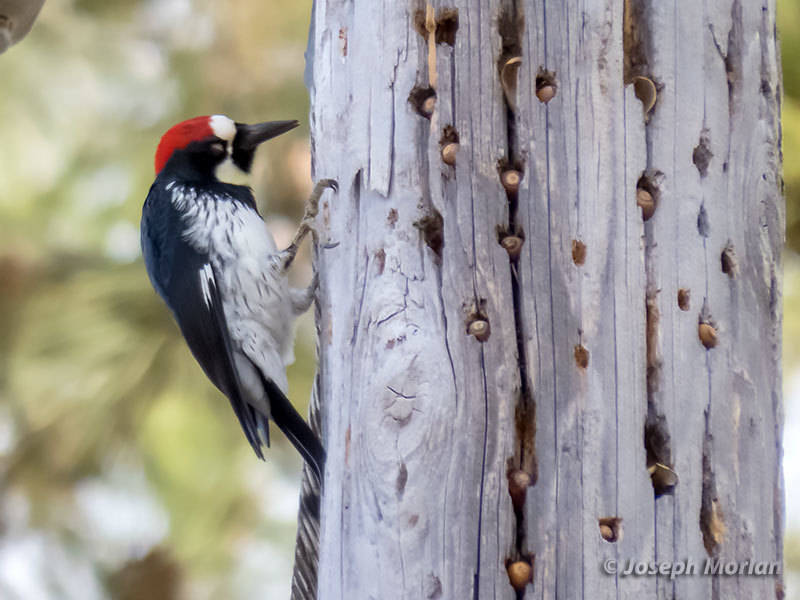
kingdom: Animalia
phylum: Chordata
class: Aves
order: Piciformes
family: Picidae
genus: Melanerpes
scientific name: Melanerpes formicivorus
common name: Acorn woodpecker
